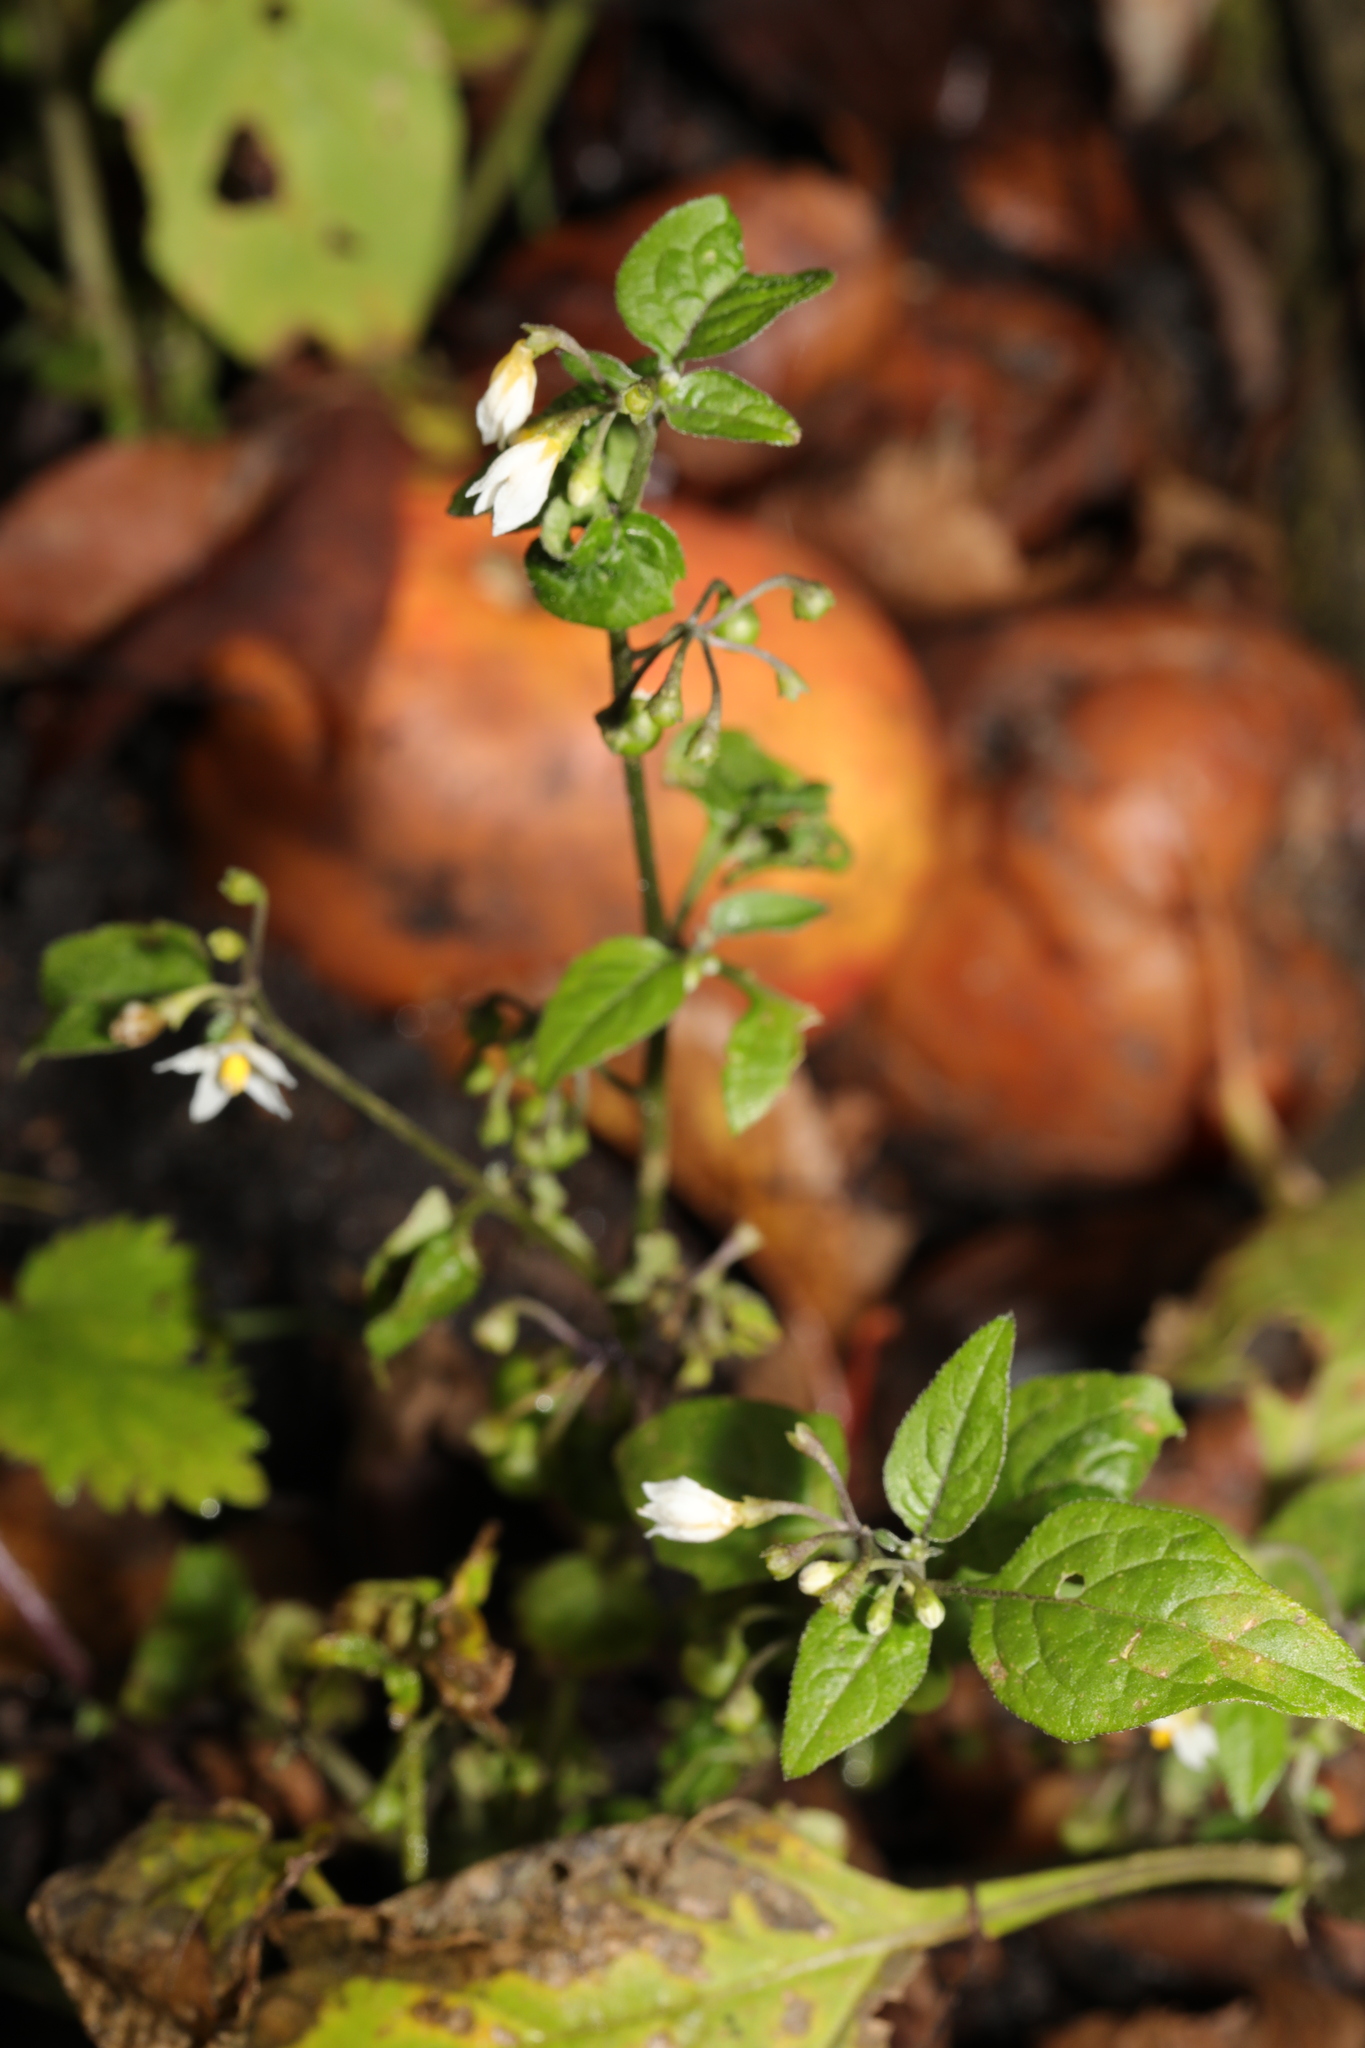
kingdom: Plantae
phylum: Tracheophyta
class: Magnoliopsida
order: Solanales
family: Solanaceae
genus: Solanum
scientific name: Solanum nigrum
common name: Black nightshade
